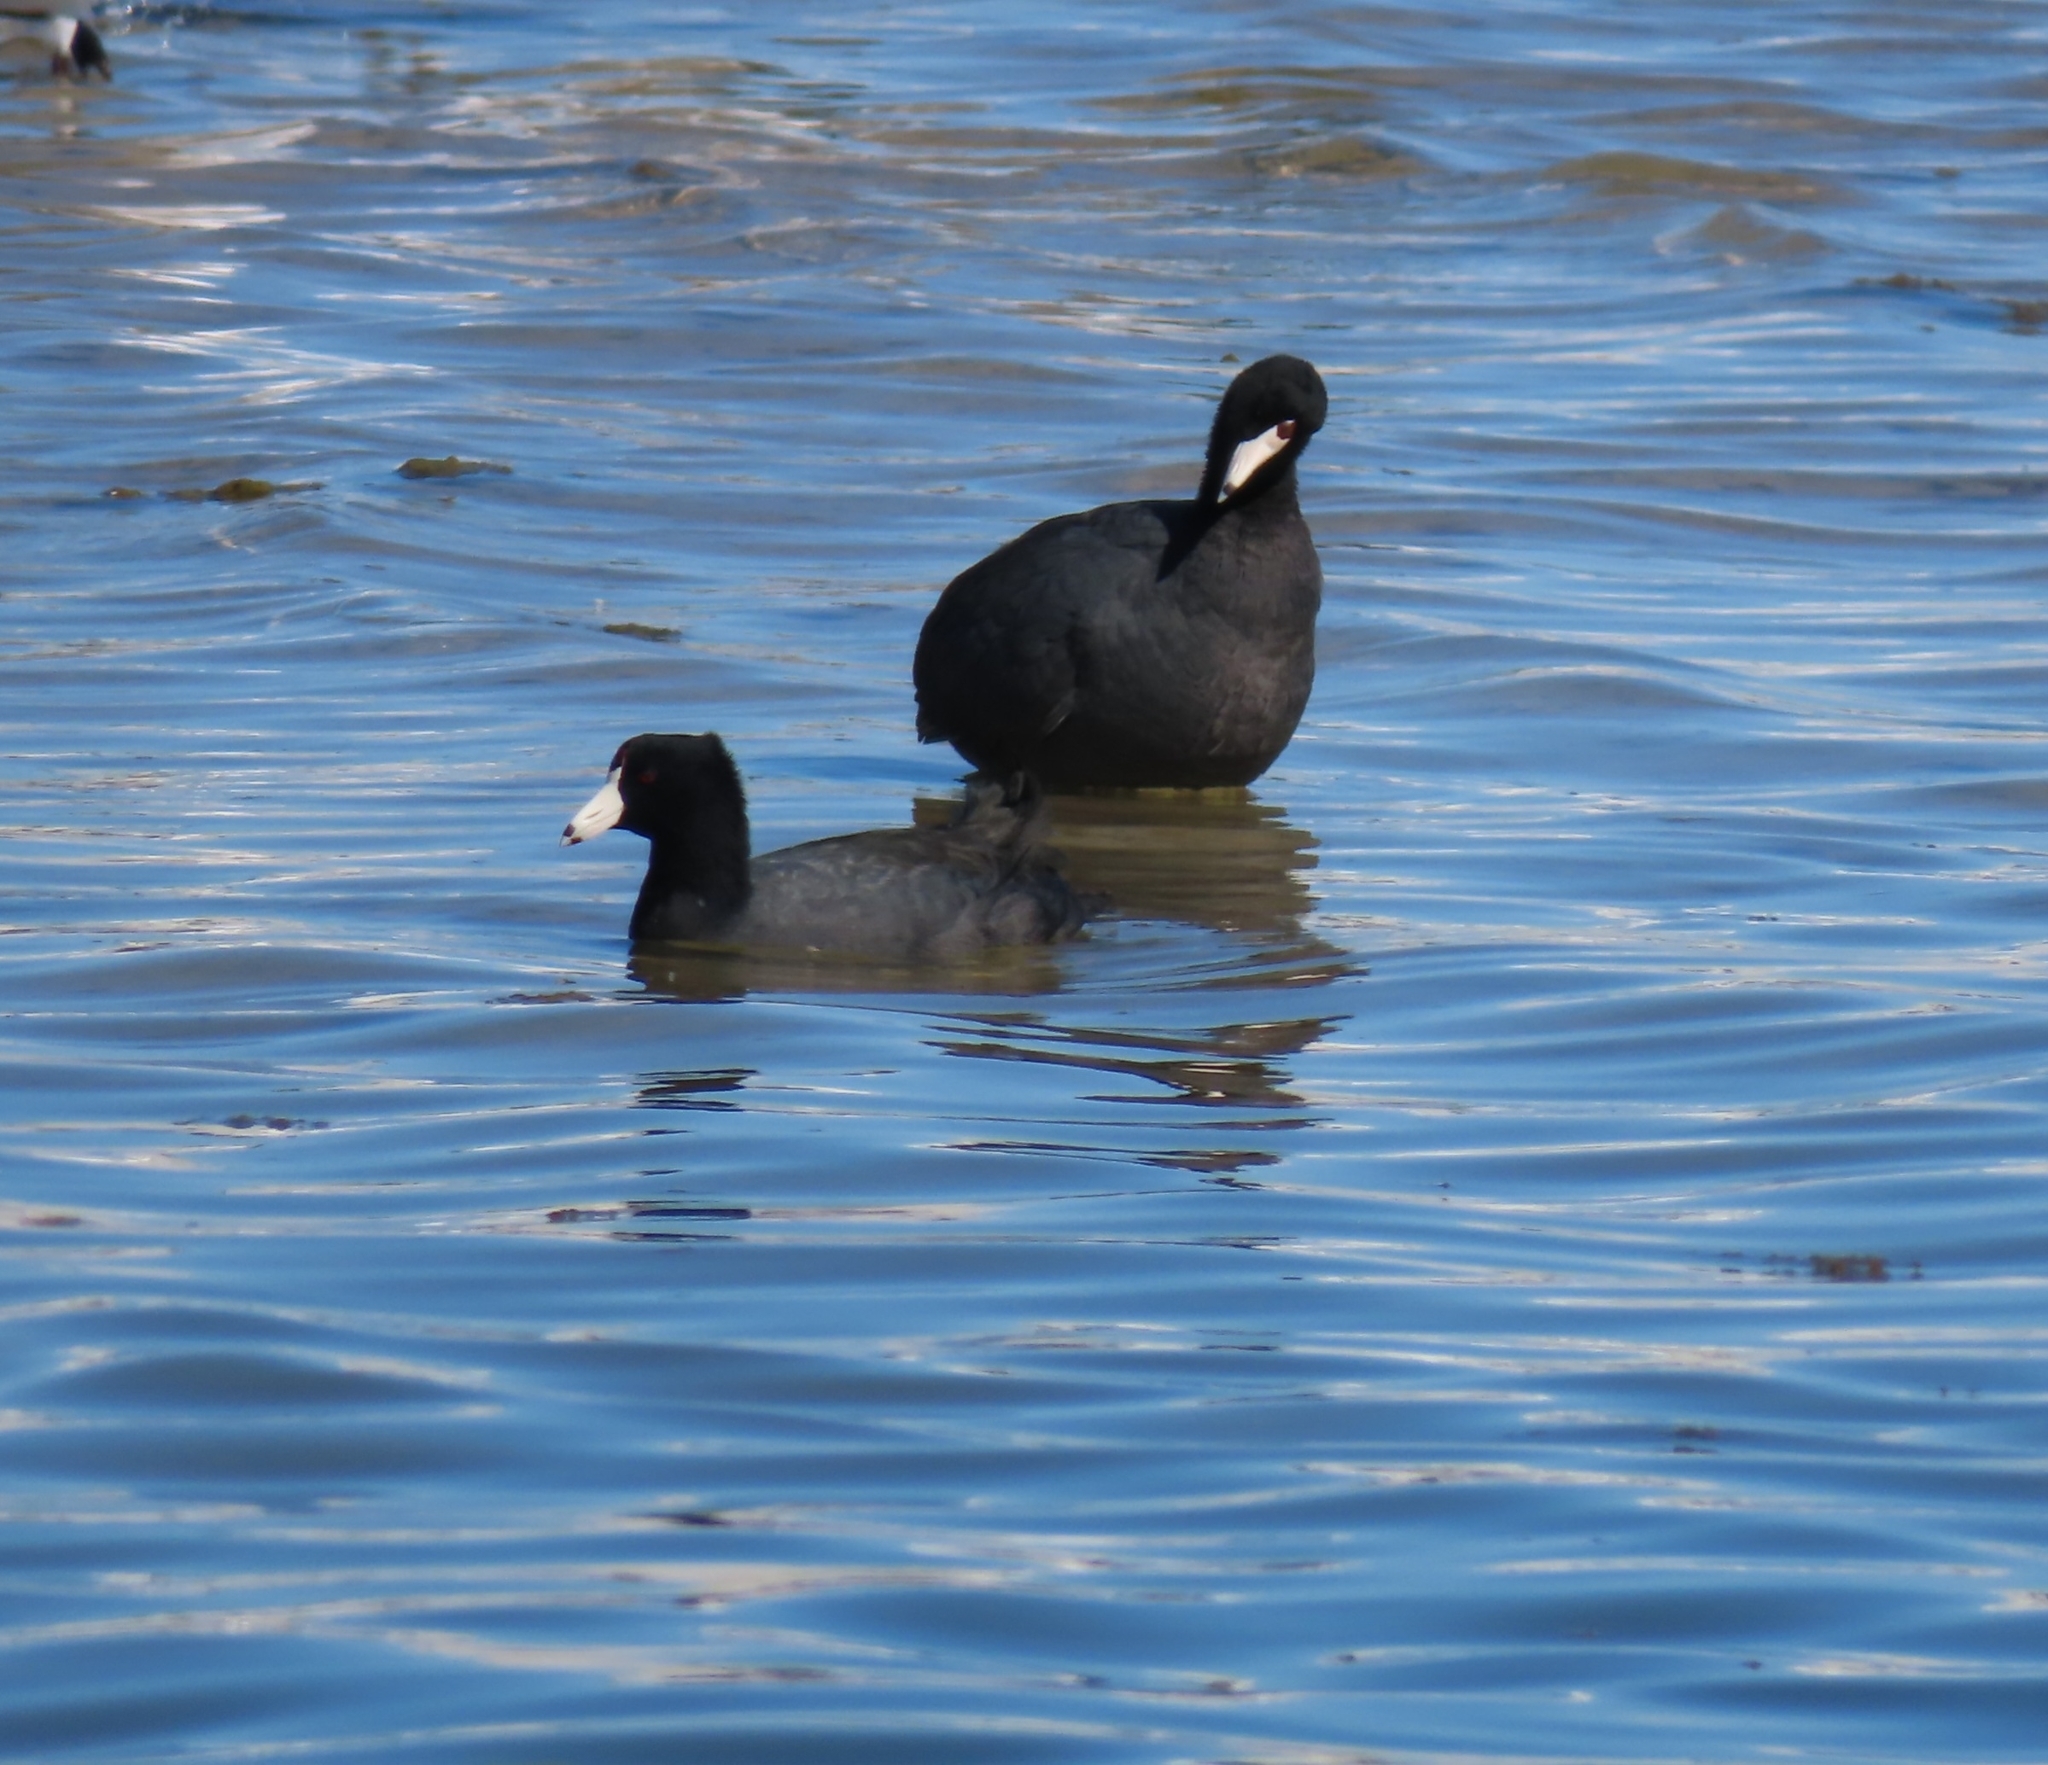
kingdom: Animalia
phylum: Chordata
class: Aves
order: Gruiformes
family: Rallidae
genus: Fulica
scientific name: Fulica americana
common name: American coot
